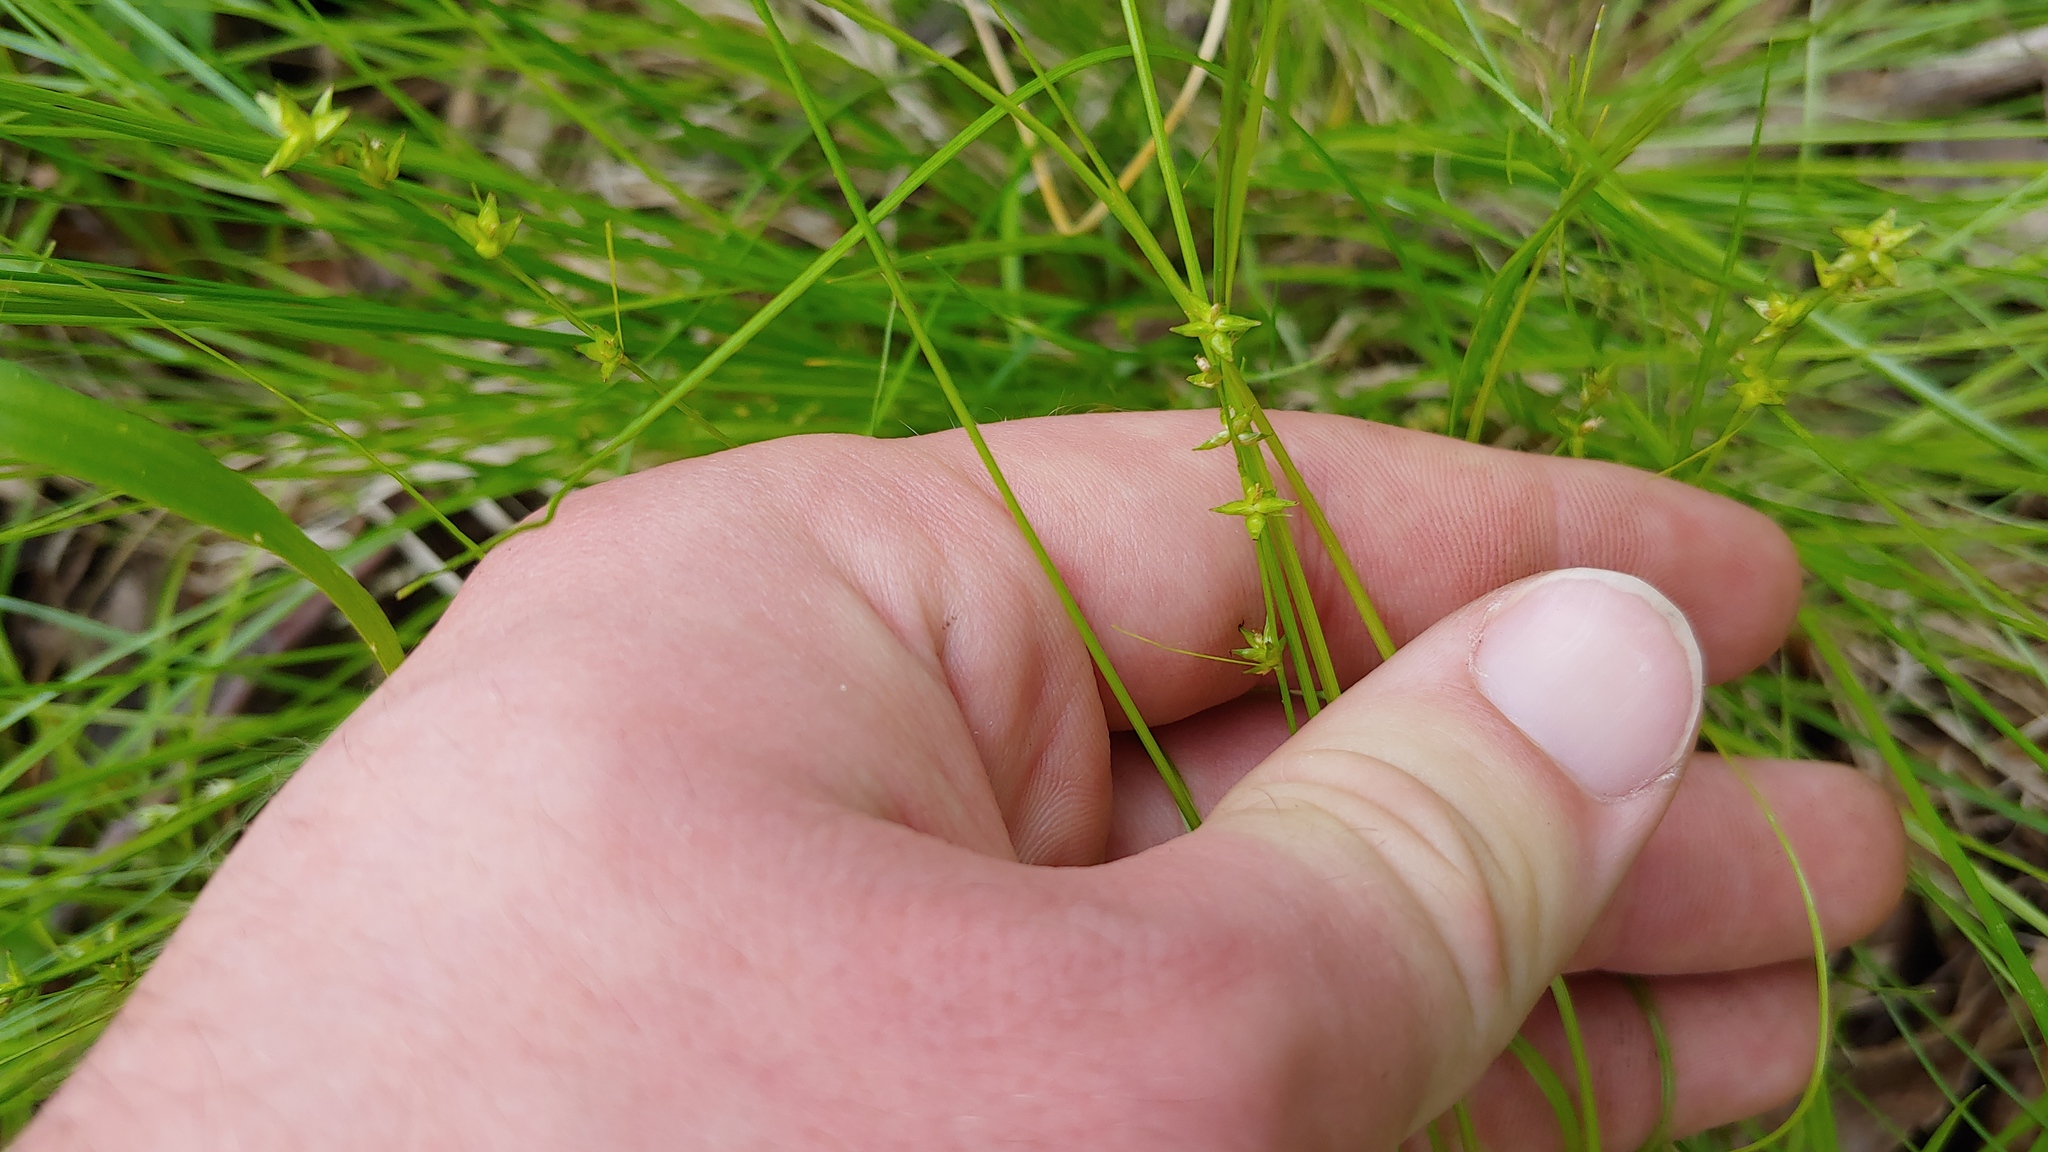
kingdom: Plantae
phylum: Tracheophyta
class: Liliopsida
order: Poales
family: Cyperaceae
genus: Carex
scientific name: Carex radiata
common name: Eastern star sedge
